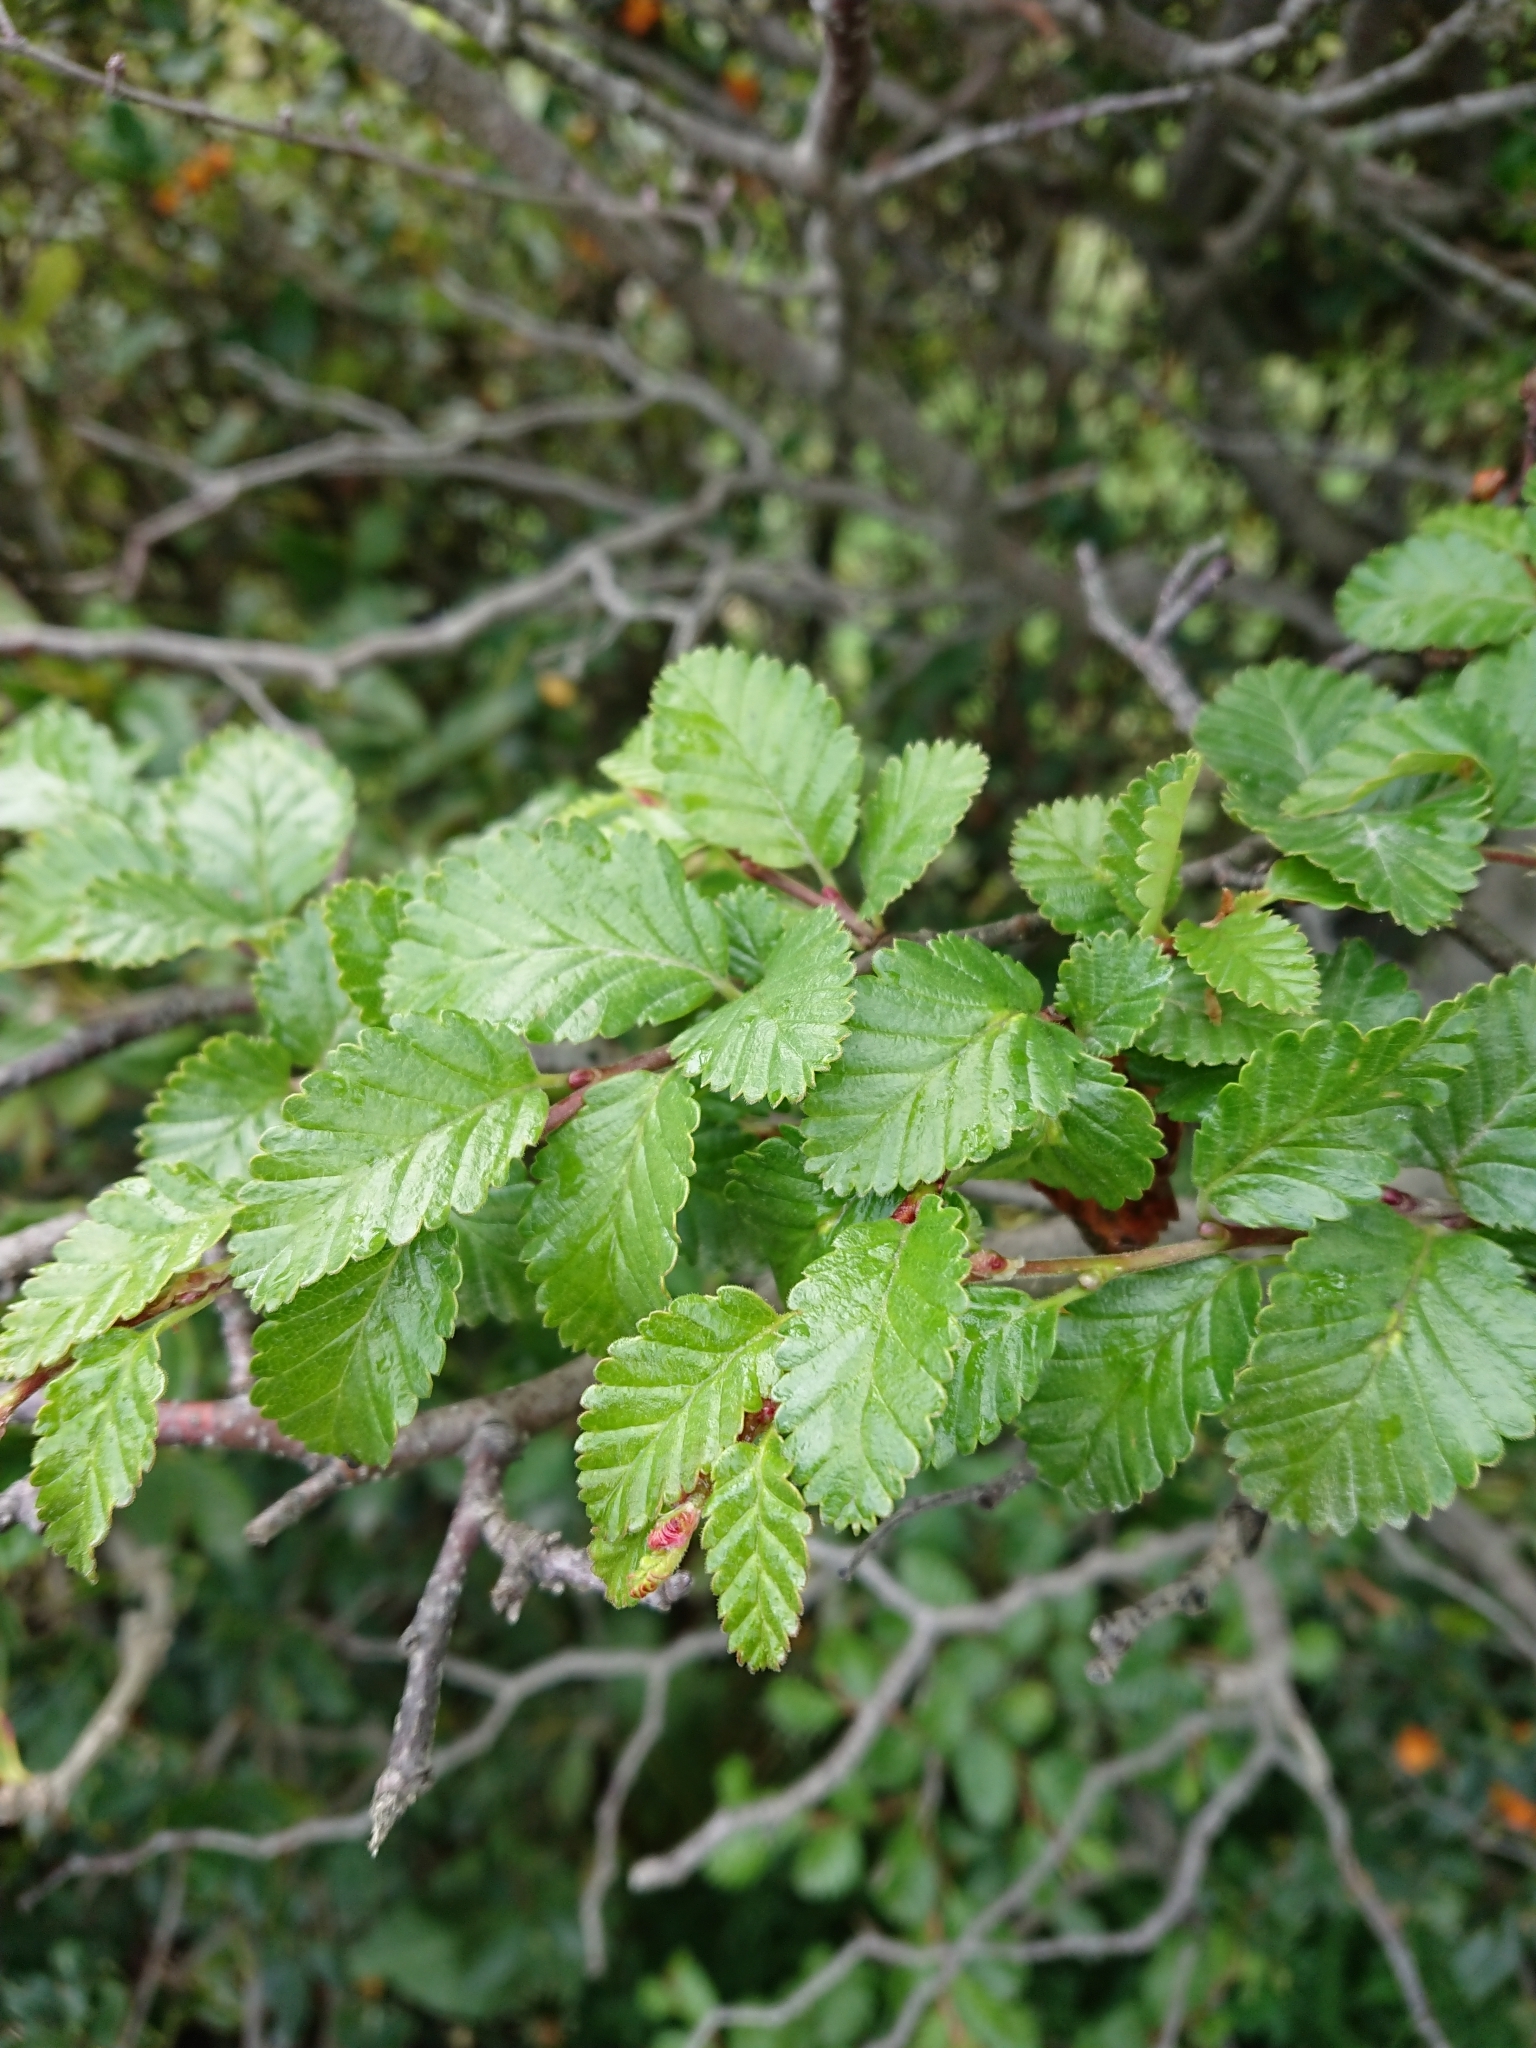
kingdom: Plantae
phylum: Tracheophyta
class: Magnoliopsida
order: Fagales
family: Nothofagaceae
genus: Nothofagus
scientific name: Nothofagus pumilio
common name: Lenga beech
